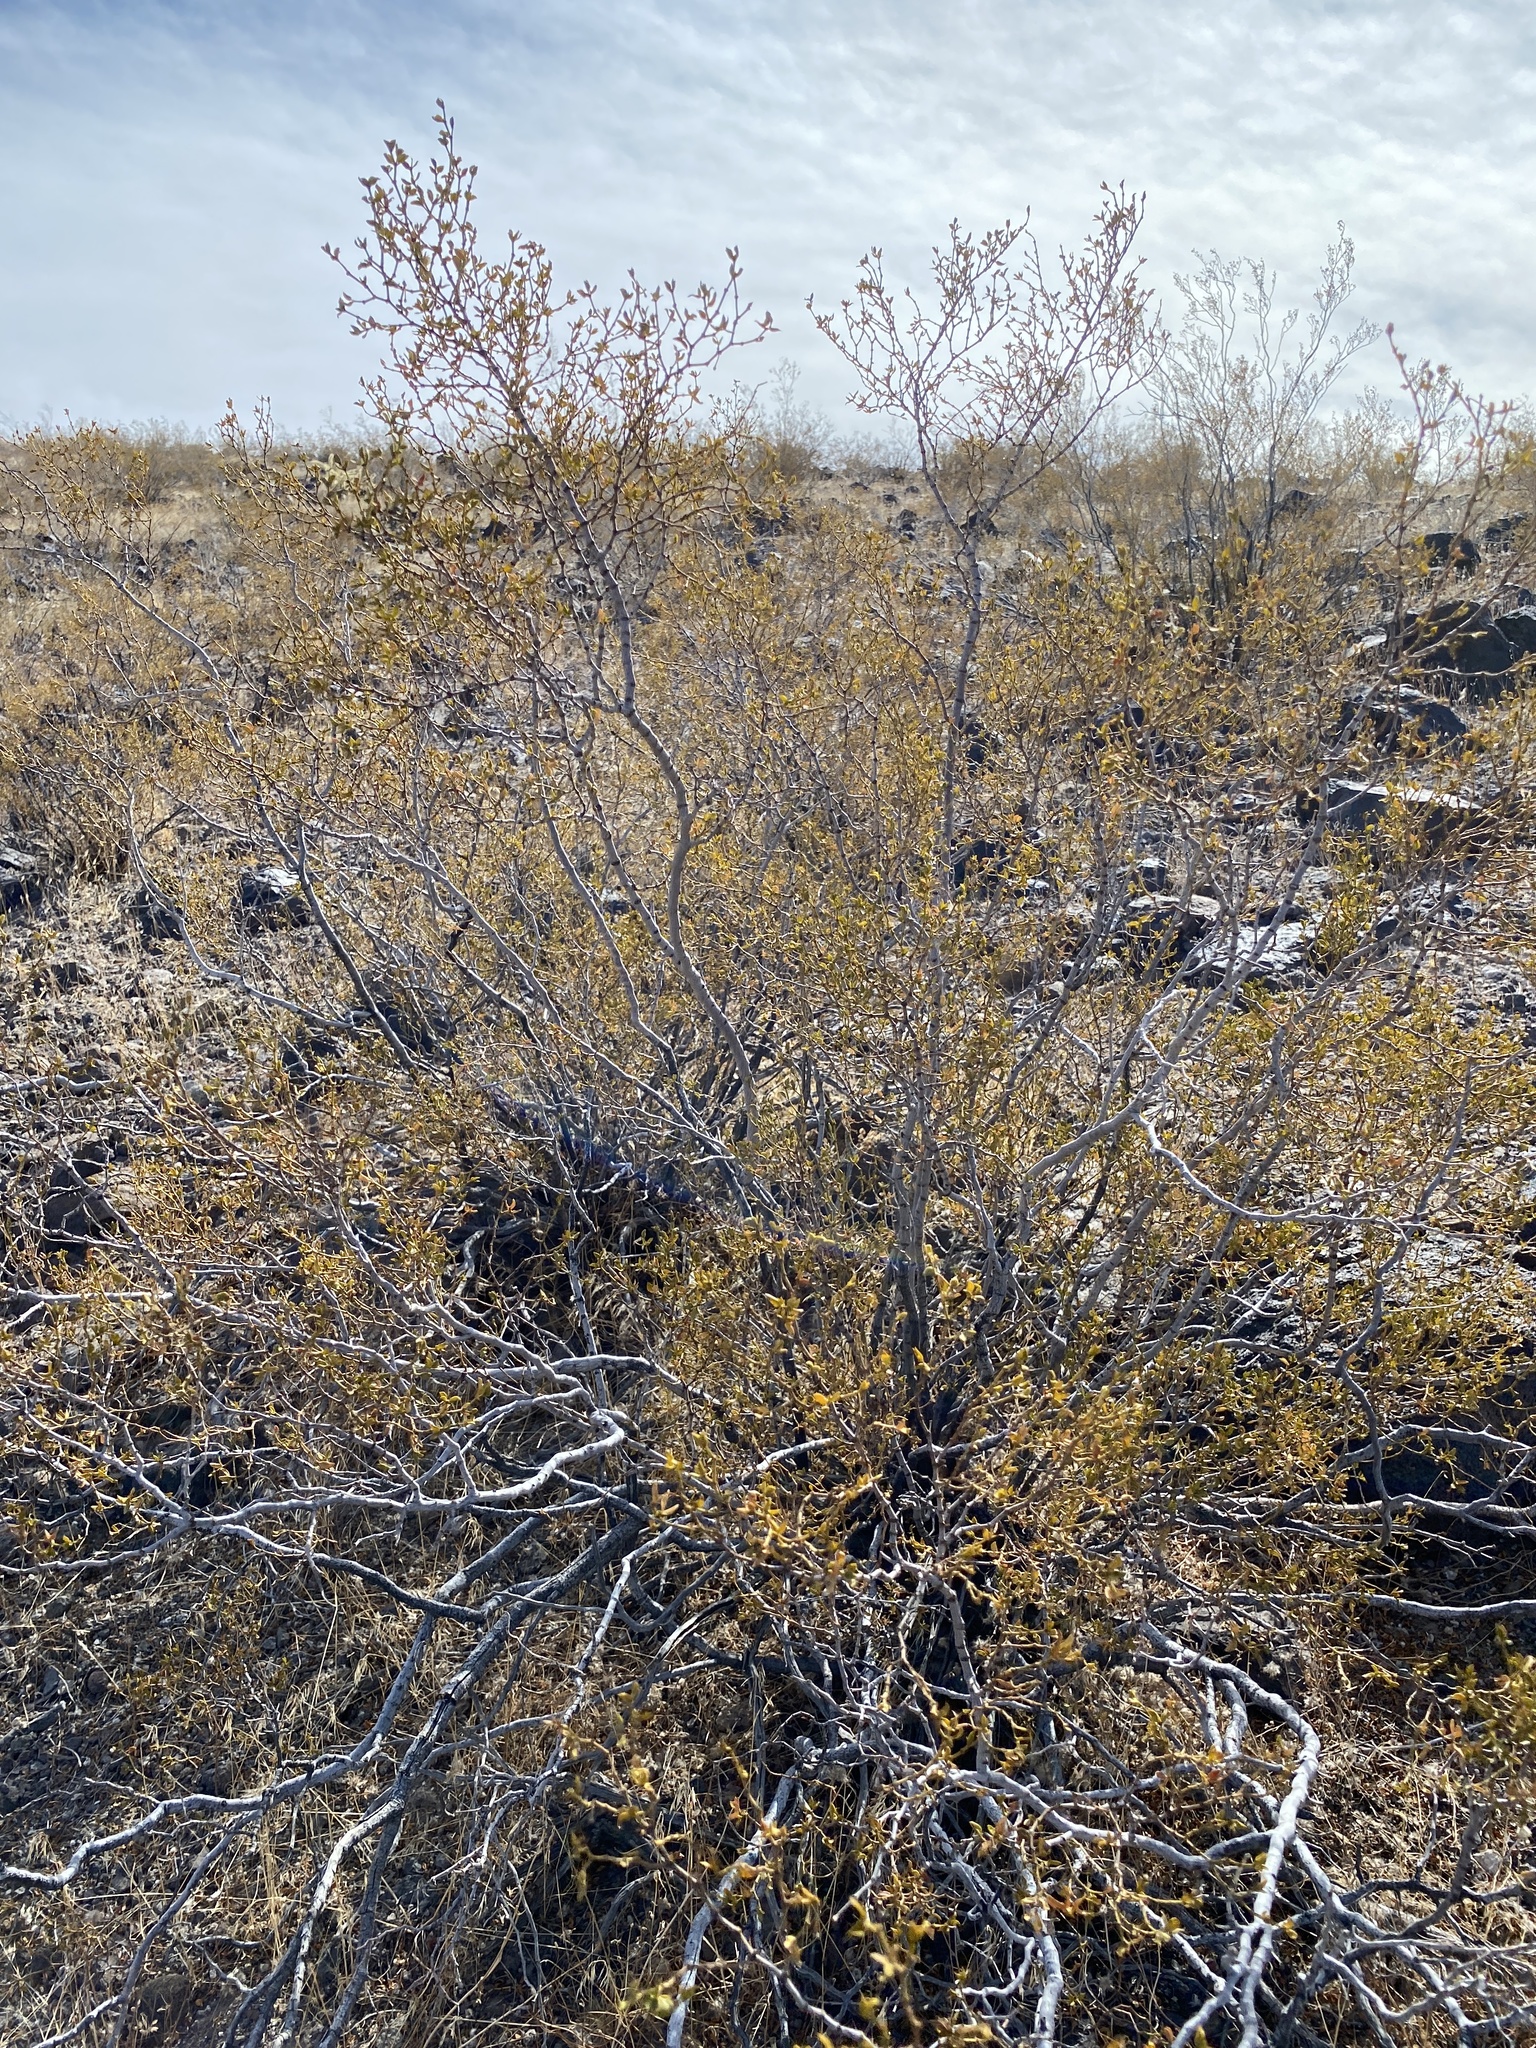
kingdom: Plantae
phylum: Tracheophyta
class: Magnoliopsida
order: Zygophyllales
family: Zygophyllaceae
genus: Larrea
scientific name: Larrea tridentata
